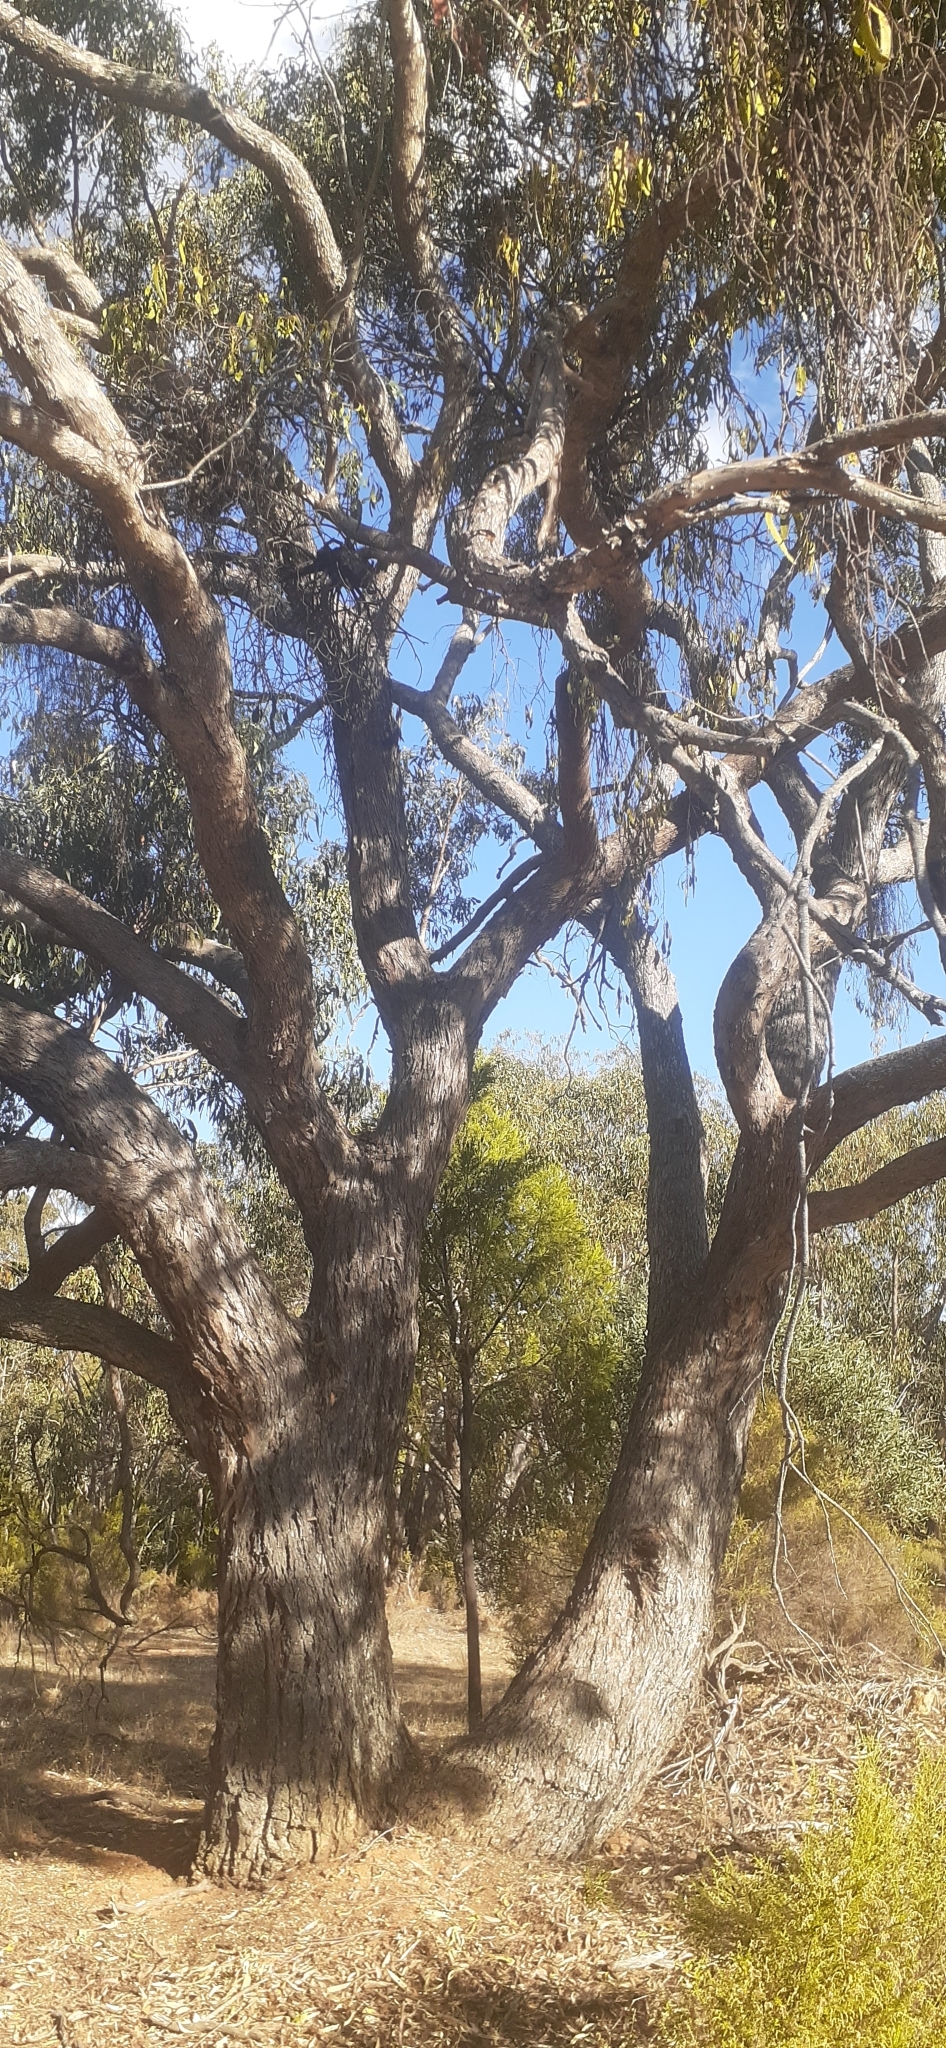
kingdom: Plantae
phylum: Tracheophyta
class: Magnoliopsida
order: Myrtales
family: Myrtaceae
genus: Eucalyptus
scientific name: Eucalyptus goniocalyx
